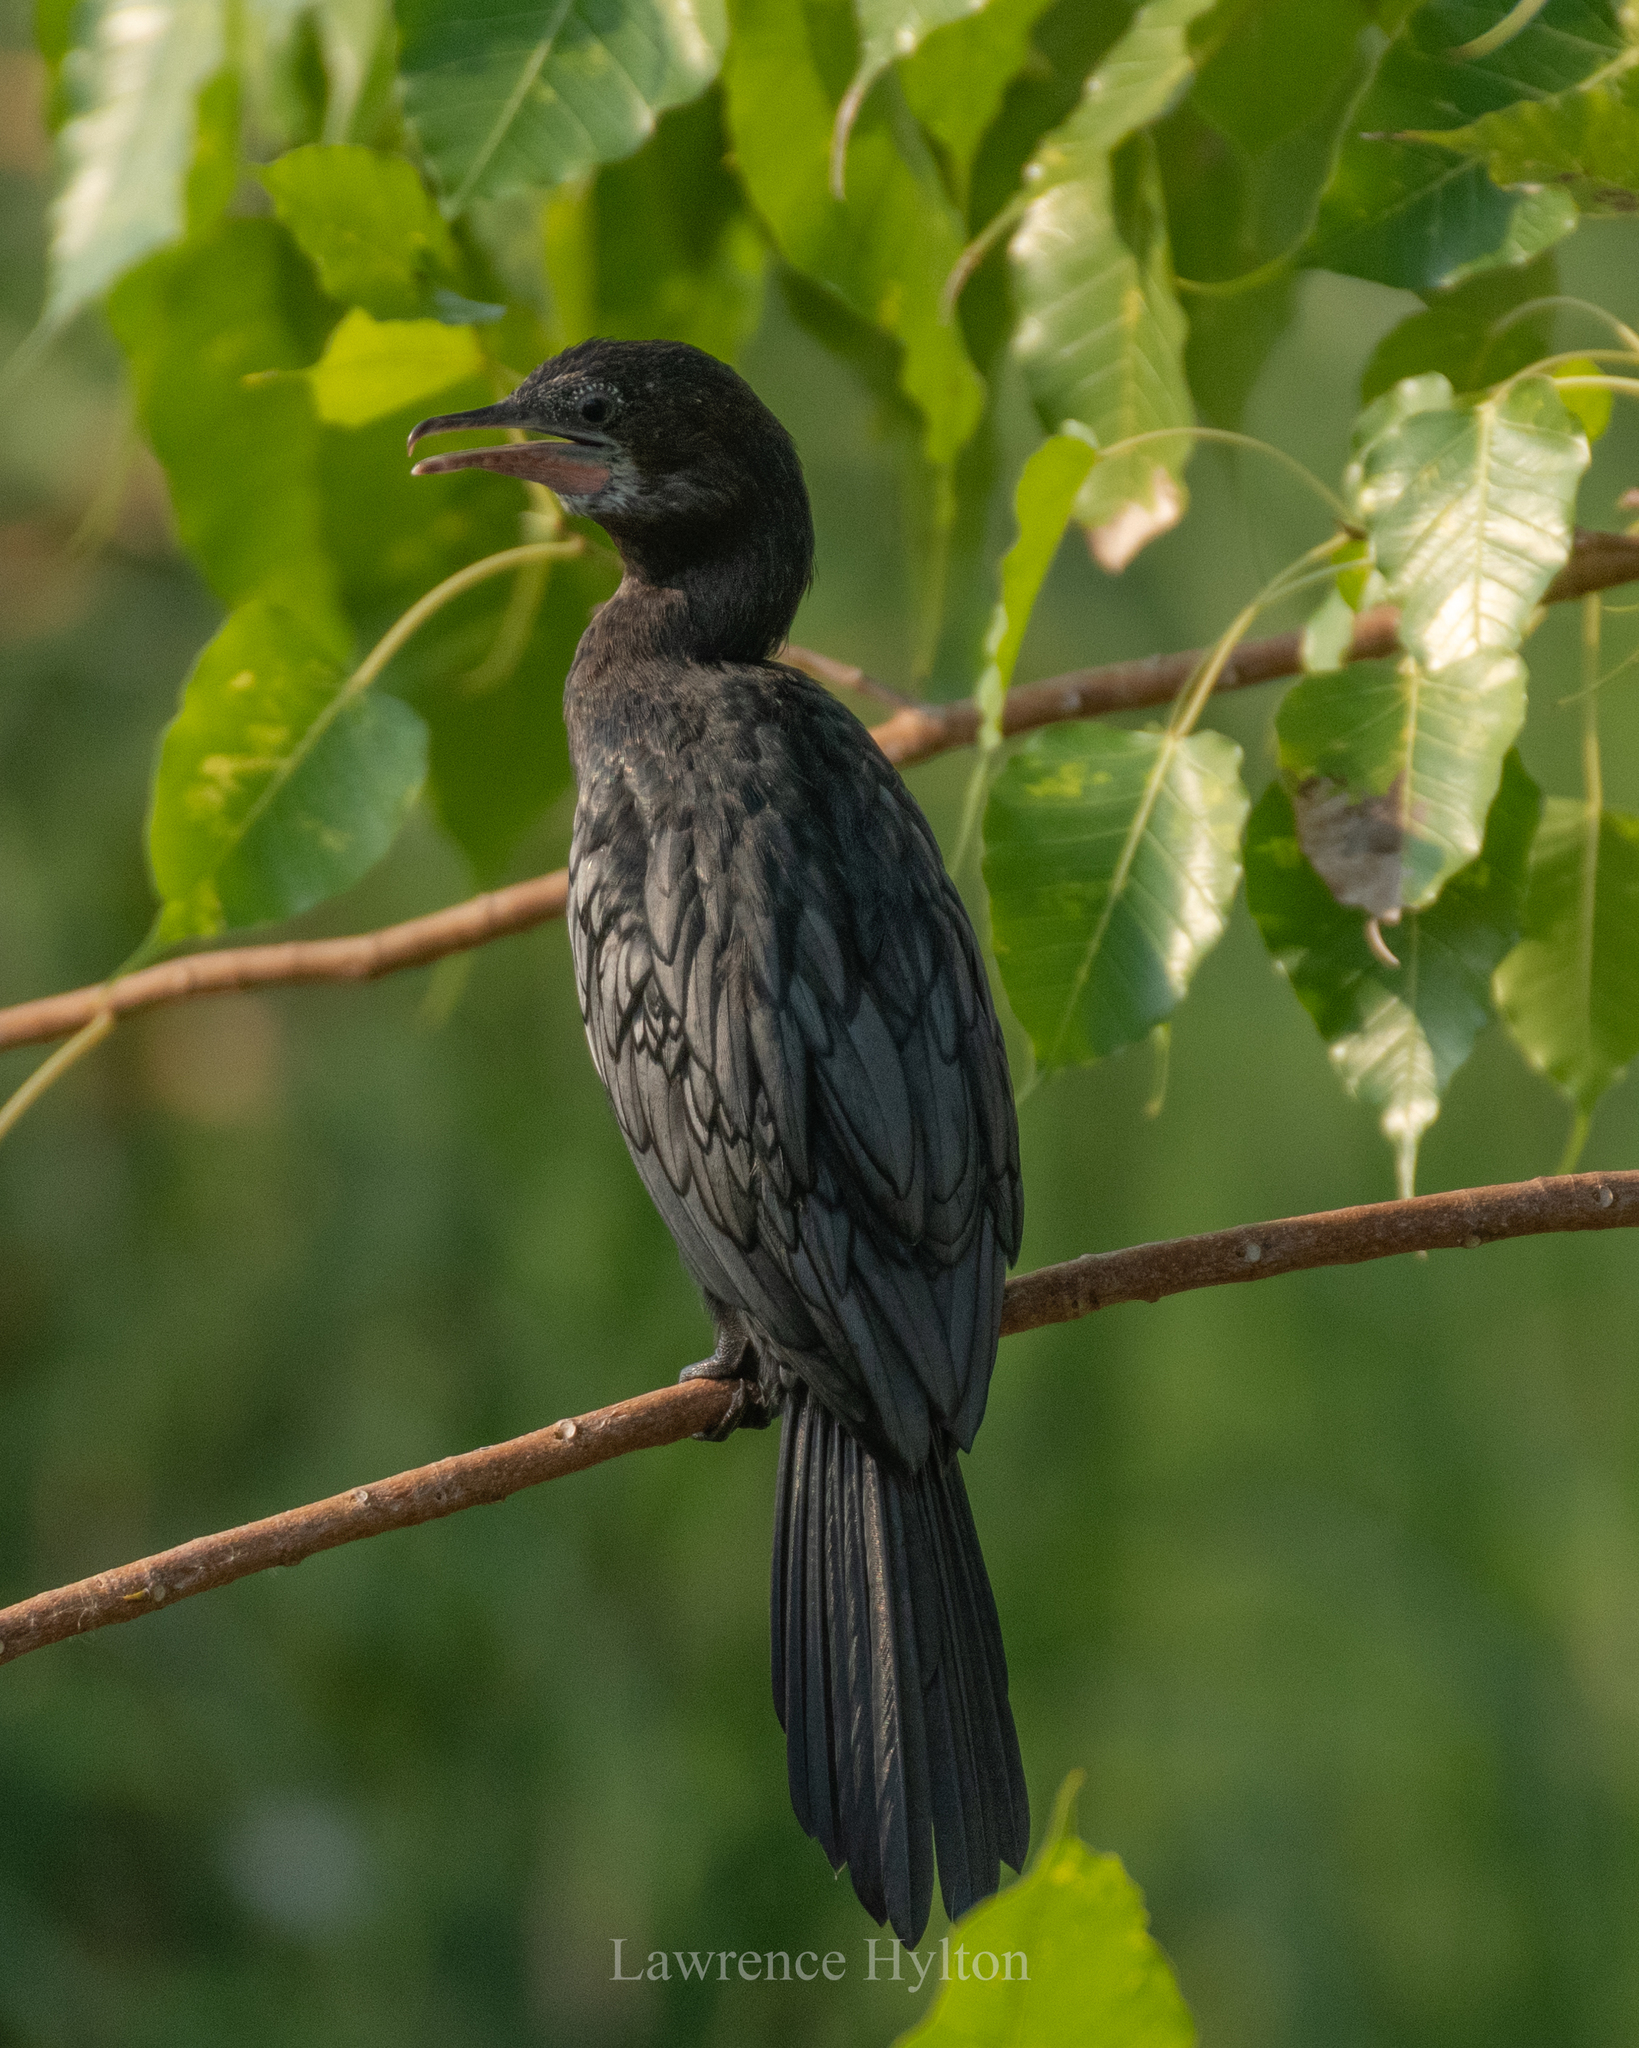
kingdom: Animalia
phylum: Chordata
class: Aves
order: Suliformes
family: Phalacrocoracidae
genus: Microcarbo
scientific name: Microcarbo niger
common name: Little cormorant
